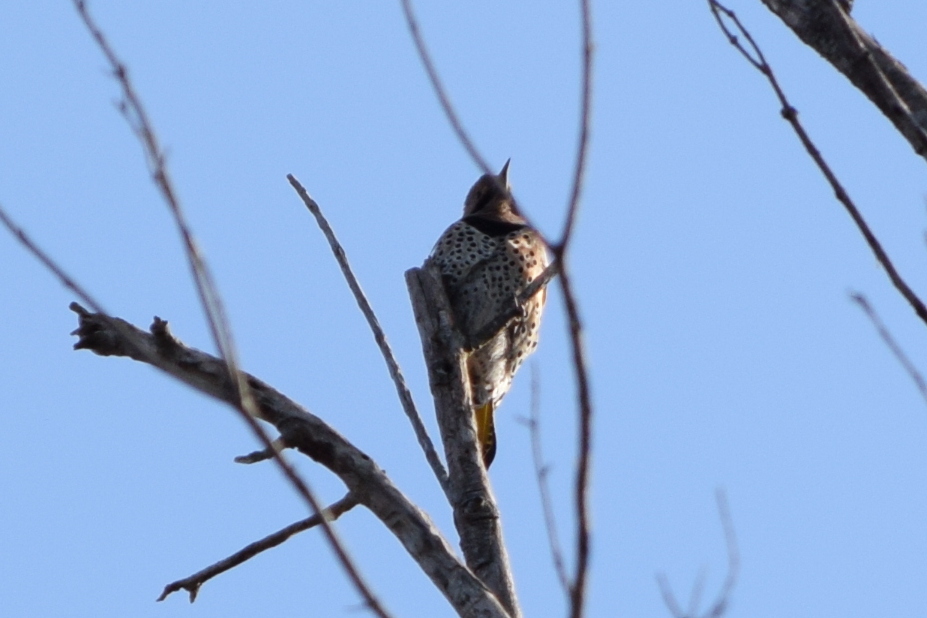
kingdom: Animalia
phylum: Chordata
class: Aves
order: Piciformes
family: Picidae
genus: Colaptes
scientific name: Colaptes auratus
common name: Northern flicker
